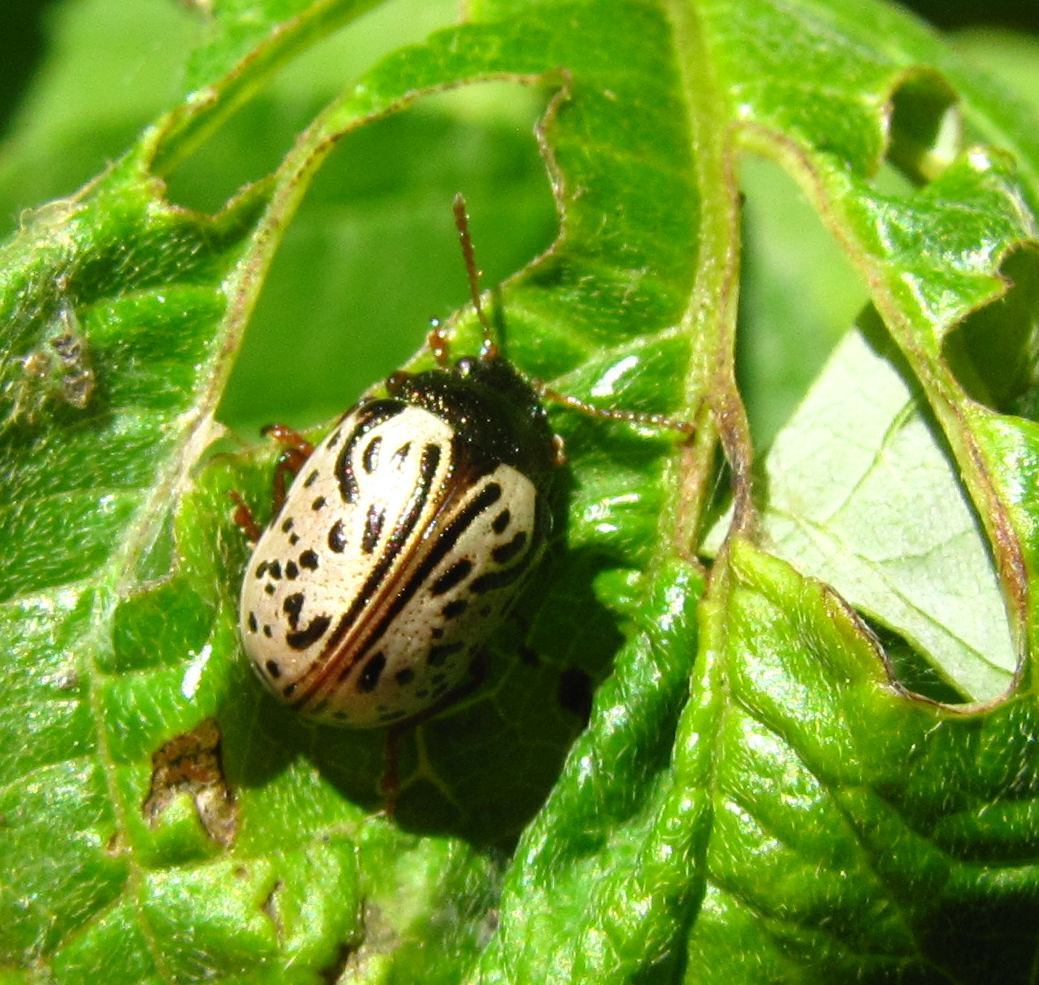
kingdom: Animalia
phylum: Arthropoda
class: Insecta
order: Coleoptera
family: Chrysomelidae
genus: Calligrapha
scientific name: Calligrapha philadelphica
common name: Dogwood leaf beetle
